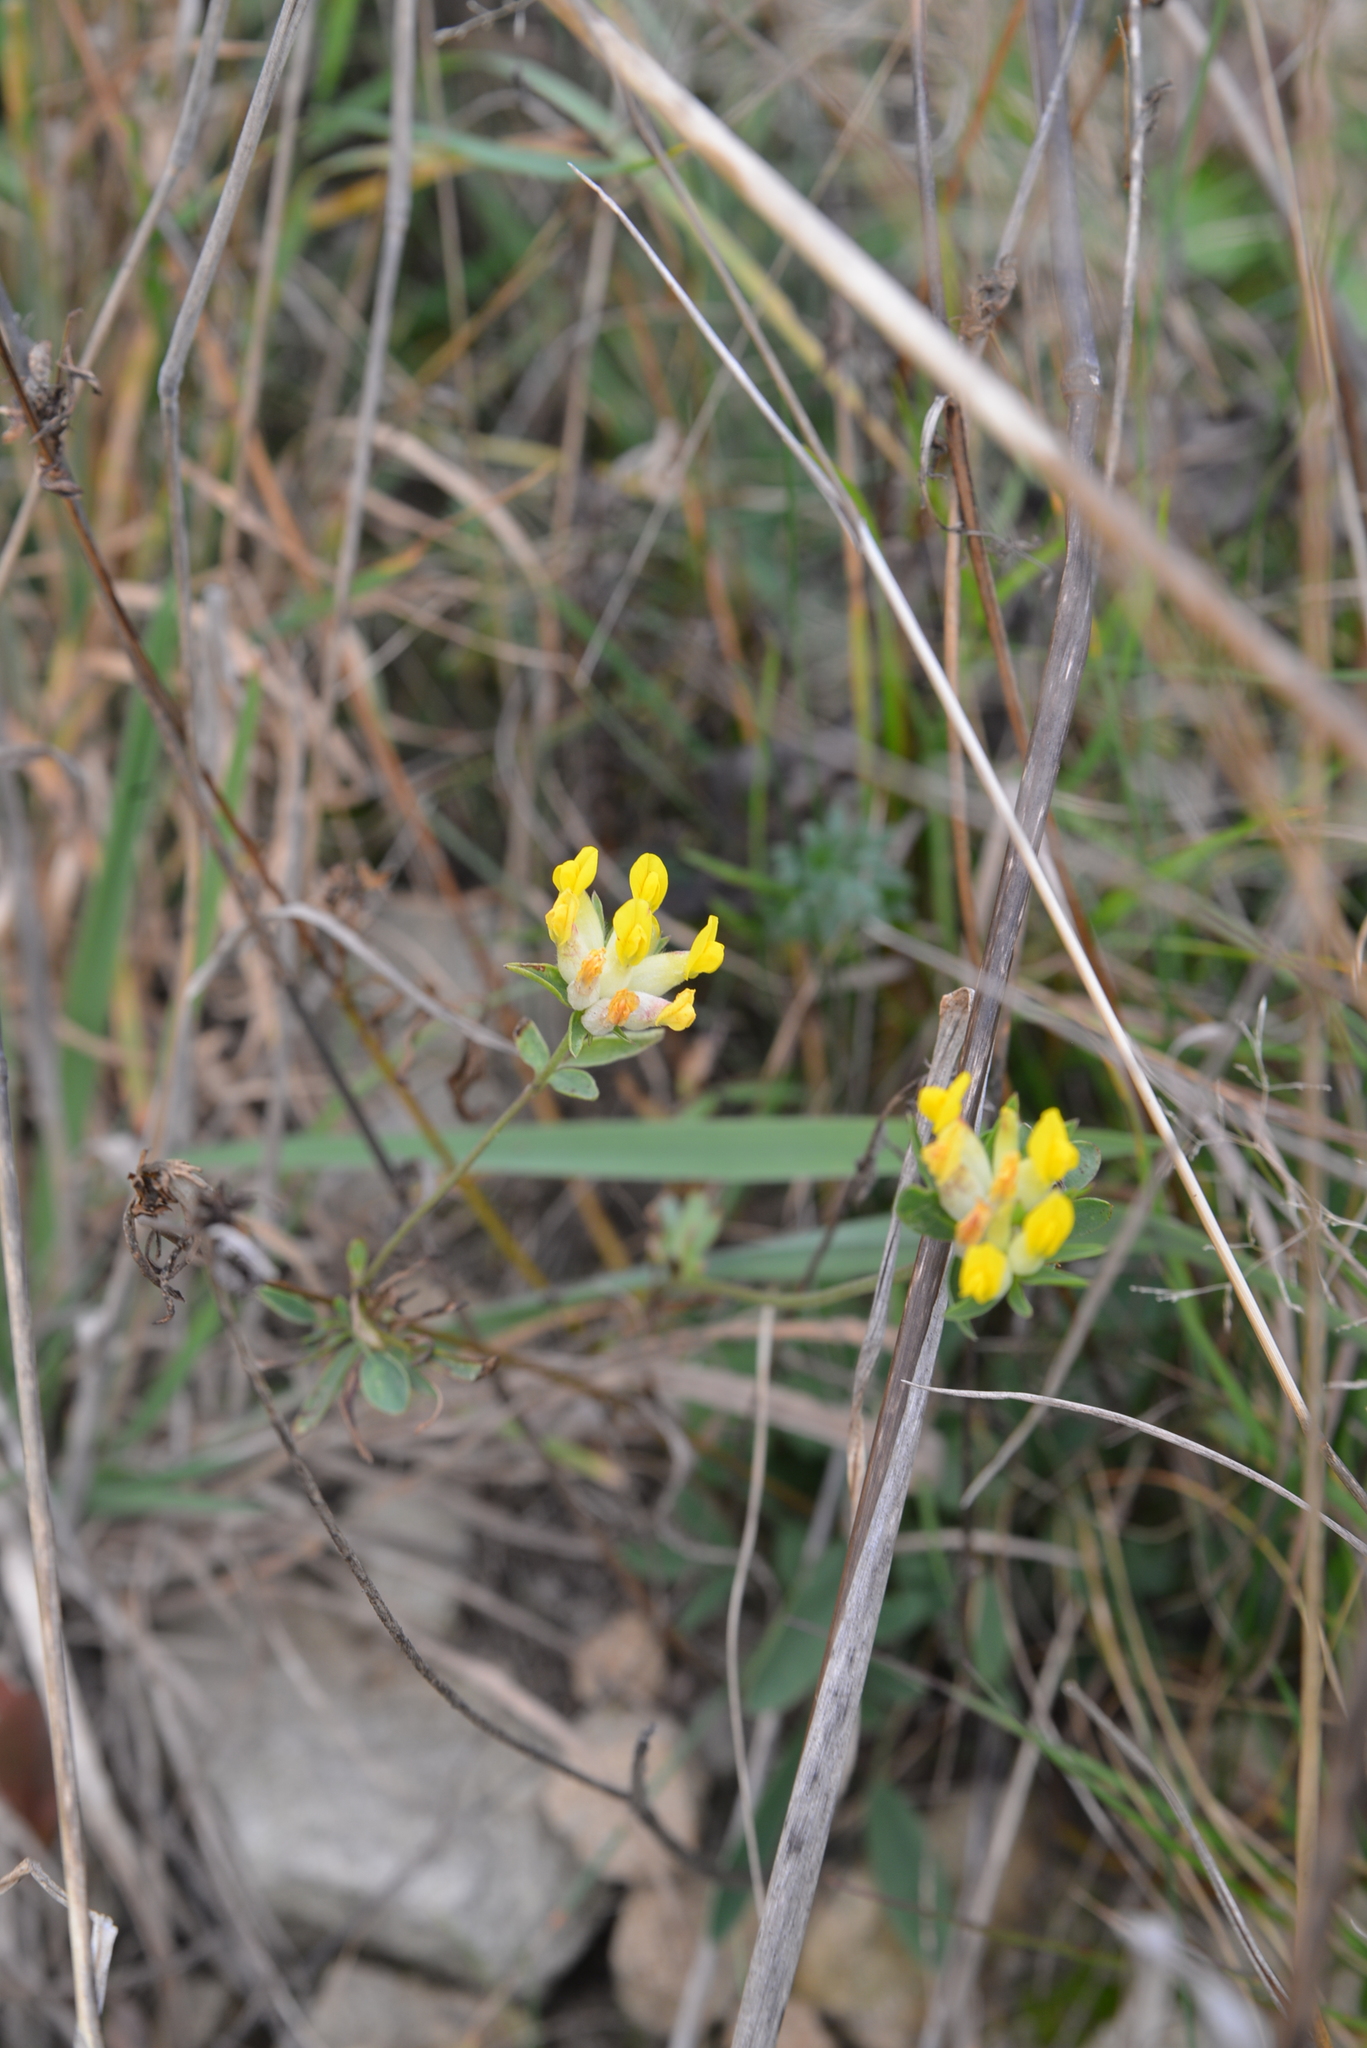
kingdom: Plantae
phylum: Tracheophyta
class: Magnoliopsida
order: Fabales
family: Fabaceae
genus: Anthyllis
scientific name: Anthyllis vulneraria
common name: Kidney vetch
